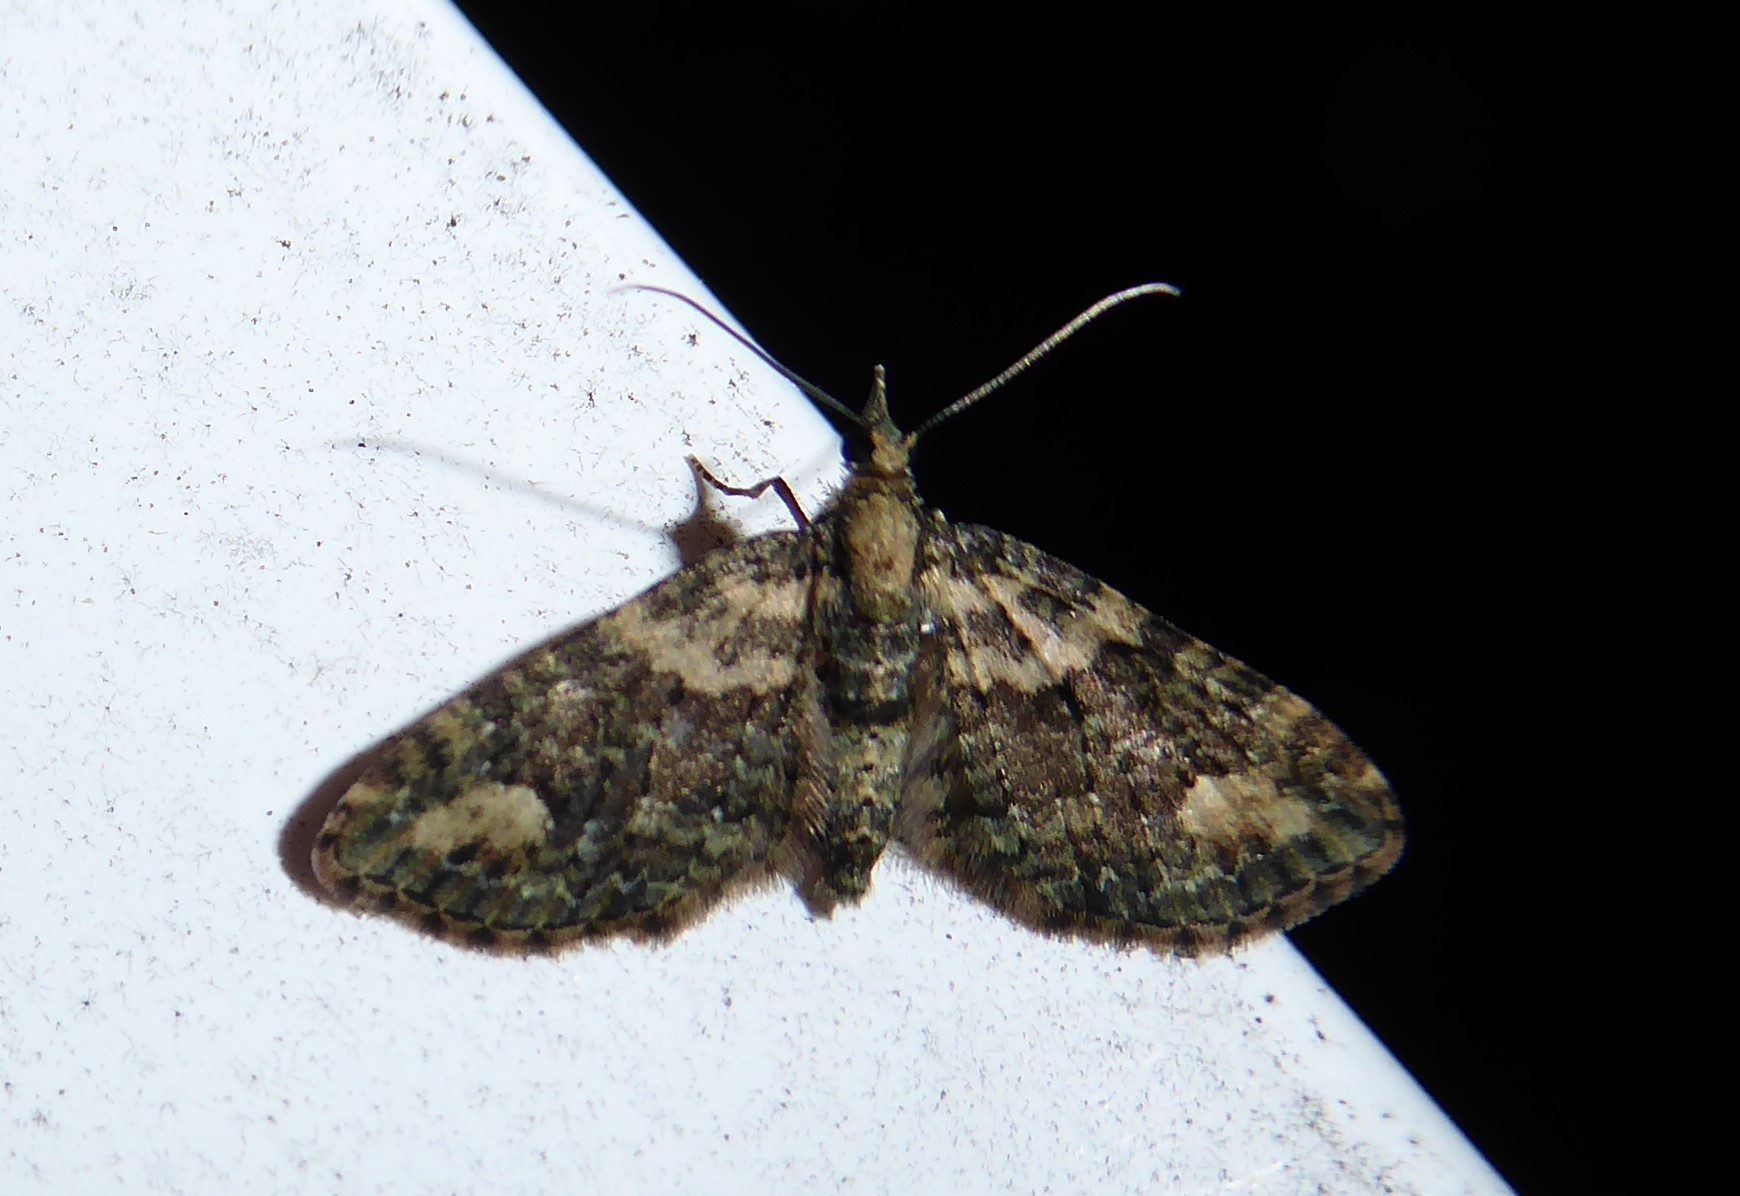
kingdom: Animalia
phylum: Arthropoda
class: Insecta
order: Lepidoptera
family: Geometridae
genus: Pasiphilodes
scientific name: Pasiphilodes testulata
